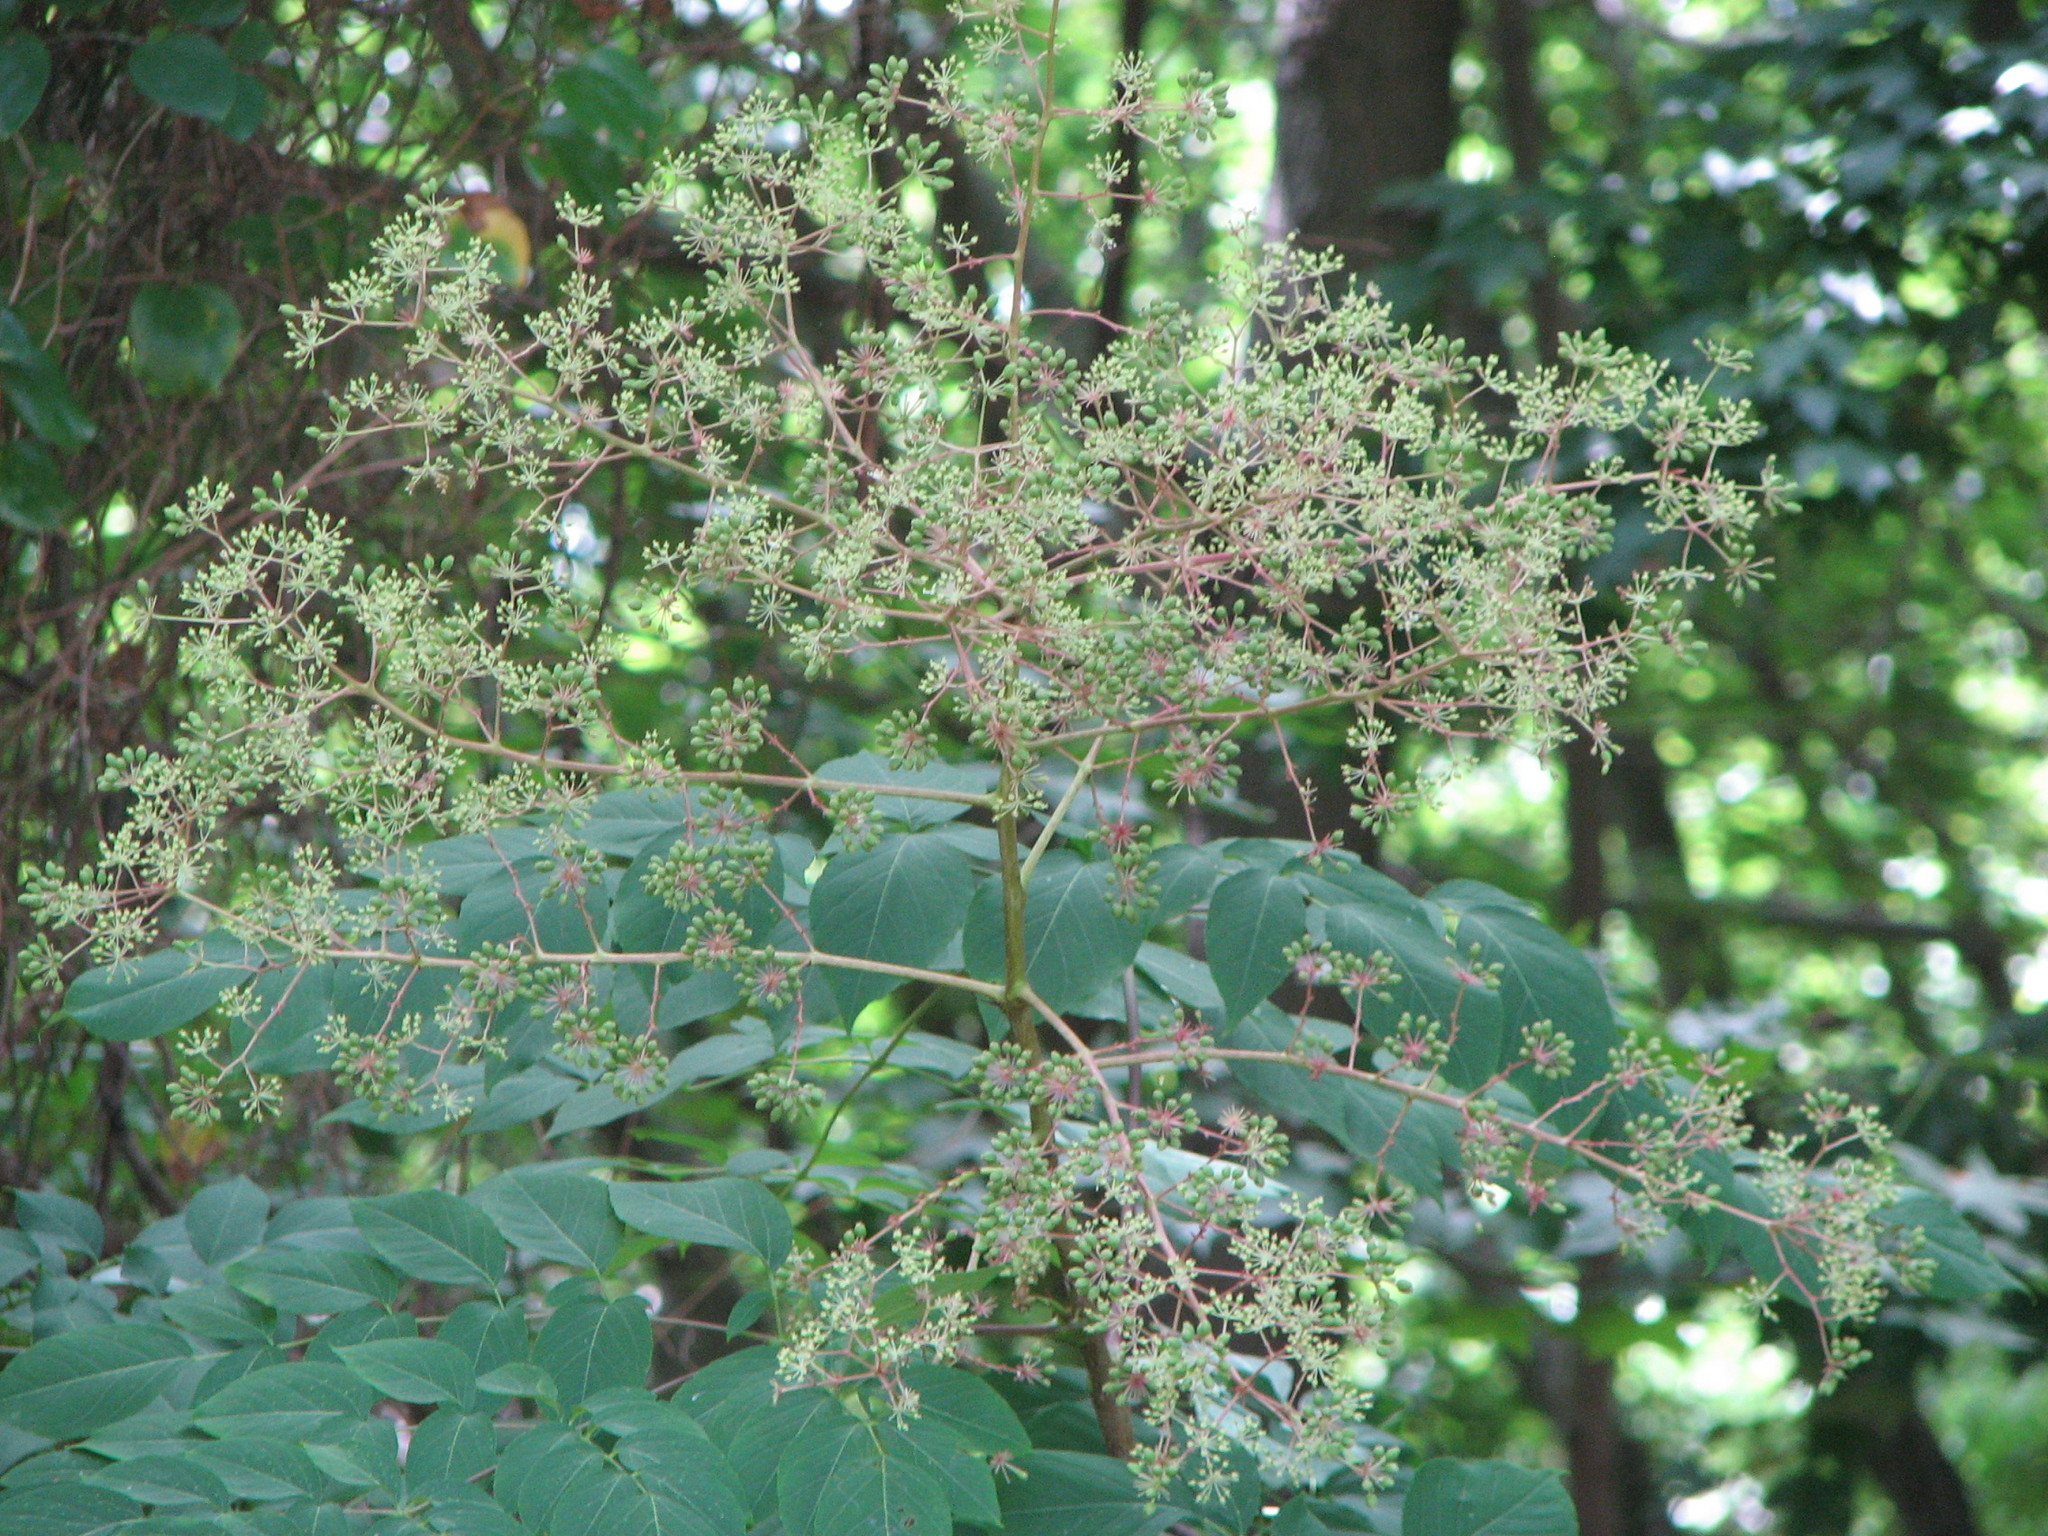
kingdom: Plantae
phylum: Tracheophyta
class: Magnoliopsida
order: Apiales
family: Araliaceae
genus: Aralia
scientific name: Aralia spinosa
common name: Hercules'-club
